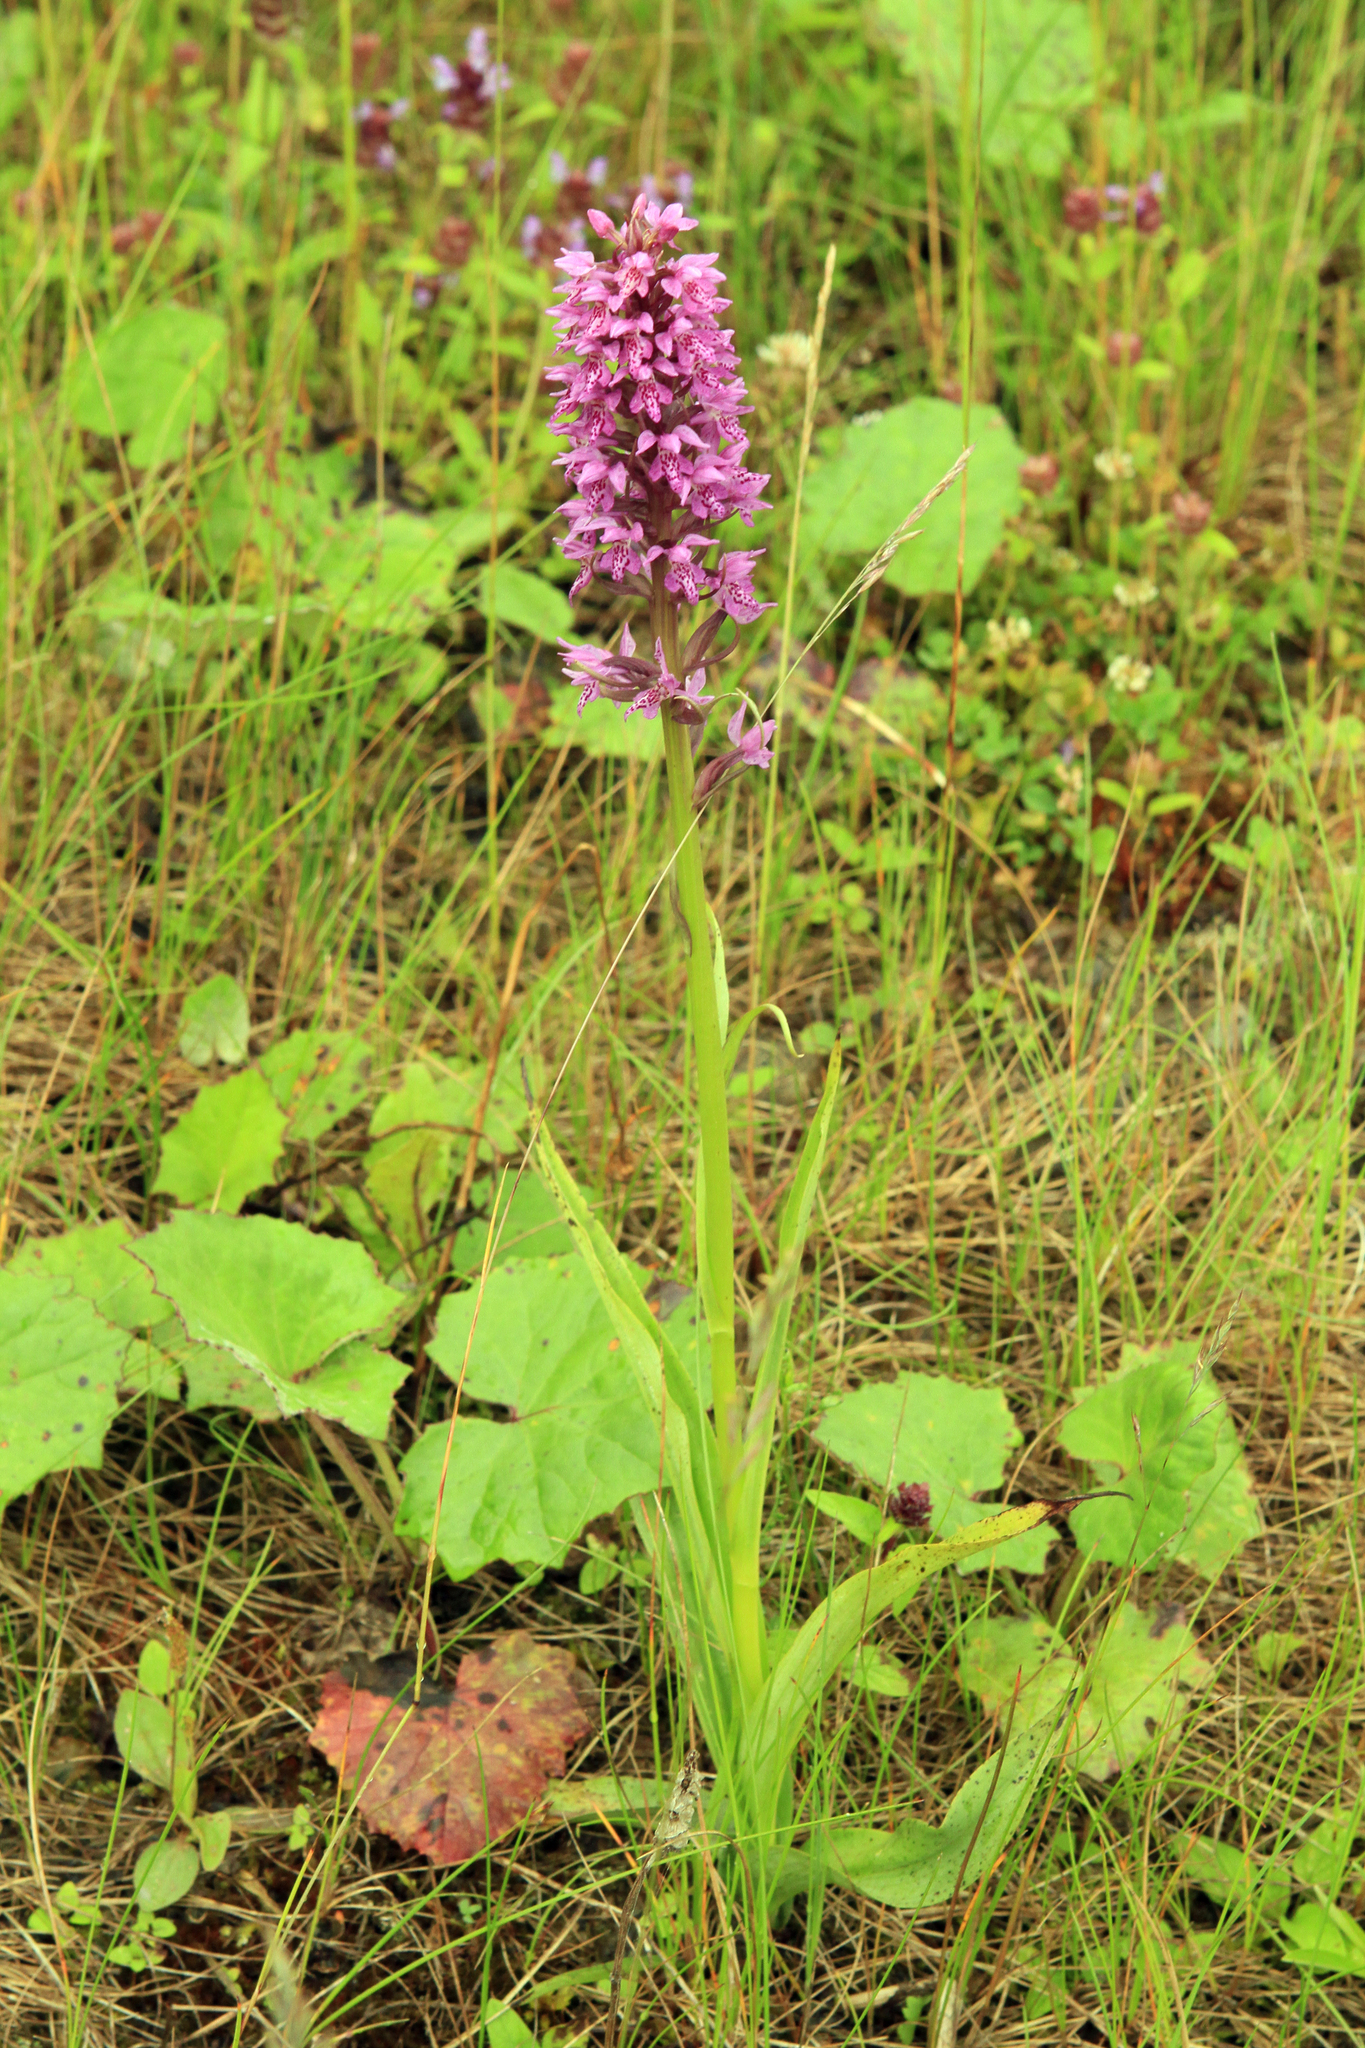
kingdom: Plantae
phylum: Tracheophyta
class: Liliopsida
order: Asparagales
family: Orchidaceae
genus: Dactylorhiza
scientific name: Dactylorhiza sibirica
